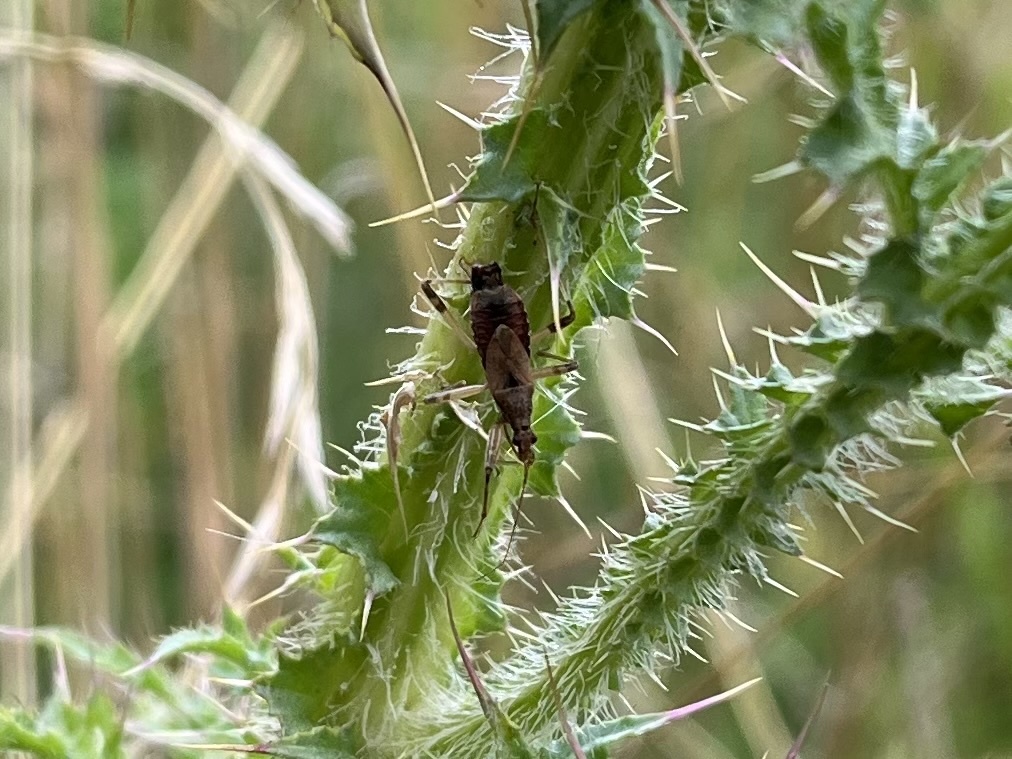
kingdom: Animalia
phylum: Arthropoda
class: Insecta
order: Hemiptera
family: Nabidae
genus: Himacerus
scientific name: Himacerus apterus
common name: Tree damsel bug
